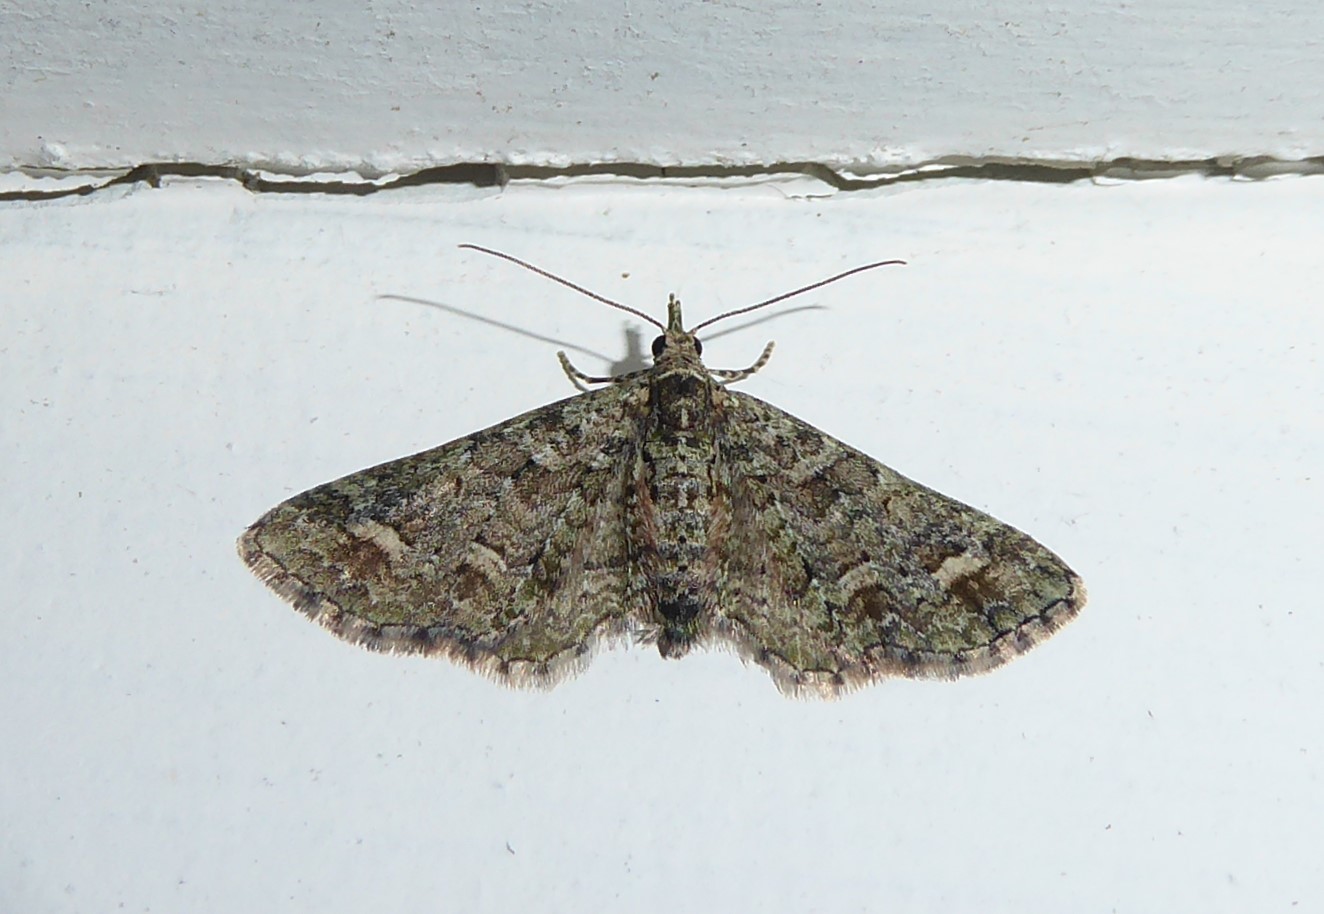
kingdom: Animalia
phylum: Arthropoda
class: Insecta
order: Lepidoptera
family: Geometridae
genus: Idaea
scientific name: Idaea mutanda
